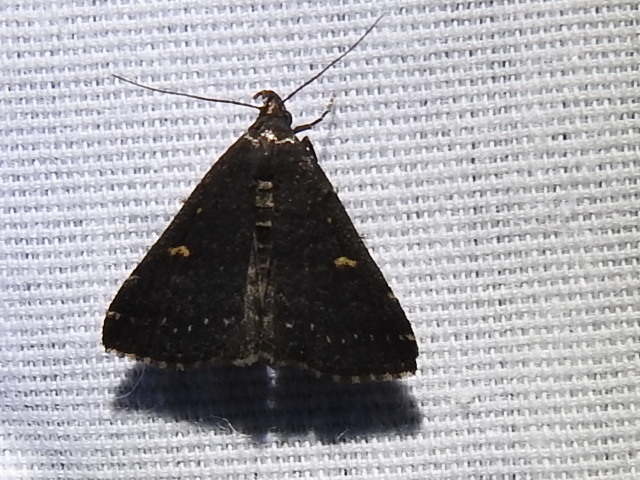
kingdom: Animalia
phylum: Arthropoda
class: Insecta
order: Lepidoptera
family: Erebidae
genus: Tetanolita
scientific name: Tetanolita mynesalis
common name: Smoky tetanolita moth
